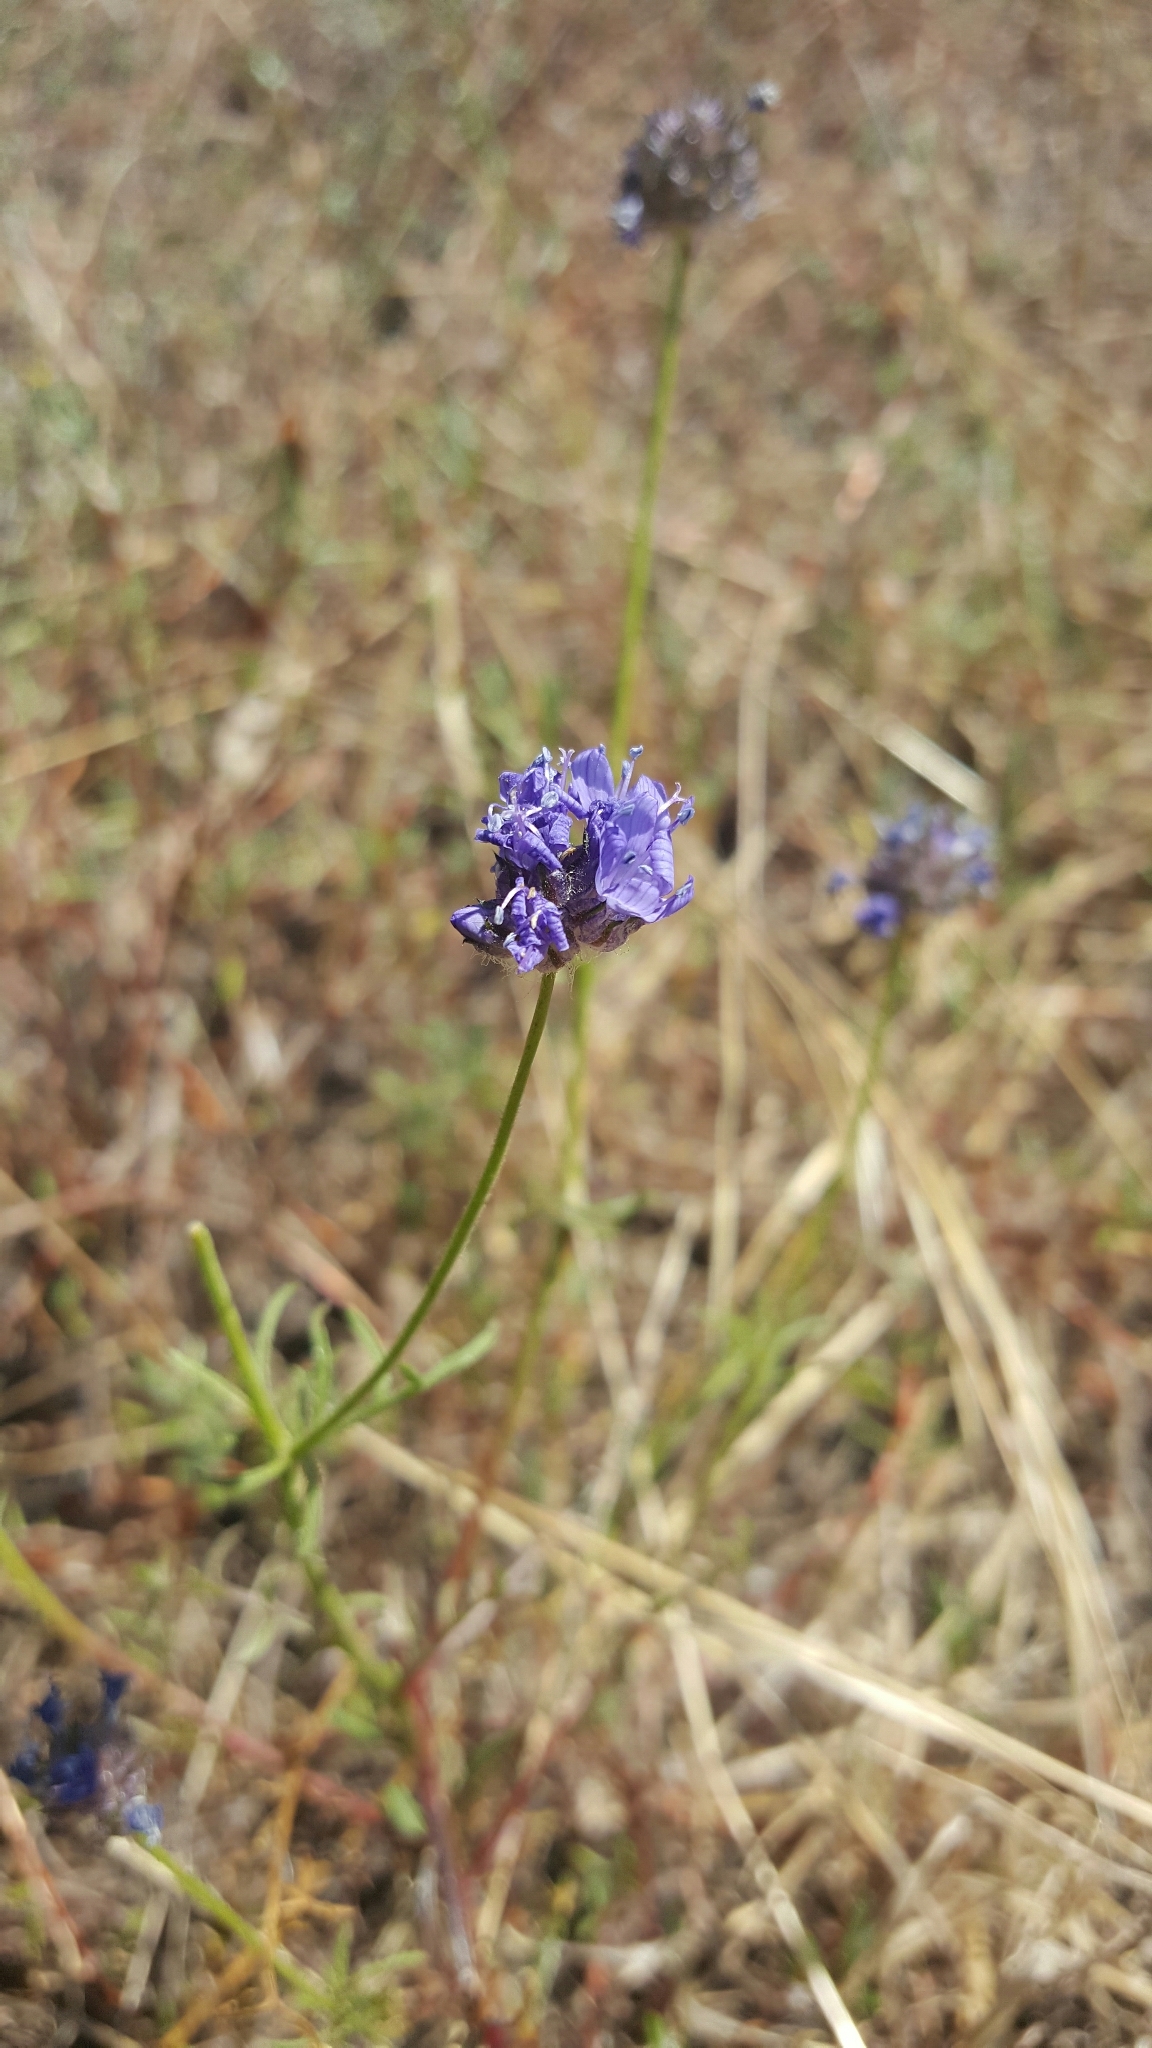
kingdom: Plantae
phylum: Tracheophyta
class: Magnoliopsida
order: Ericales
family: Polemoniaceae
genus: Gilia
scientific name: Gilia capitata
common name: Bluehead gilia
